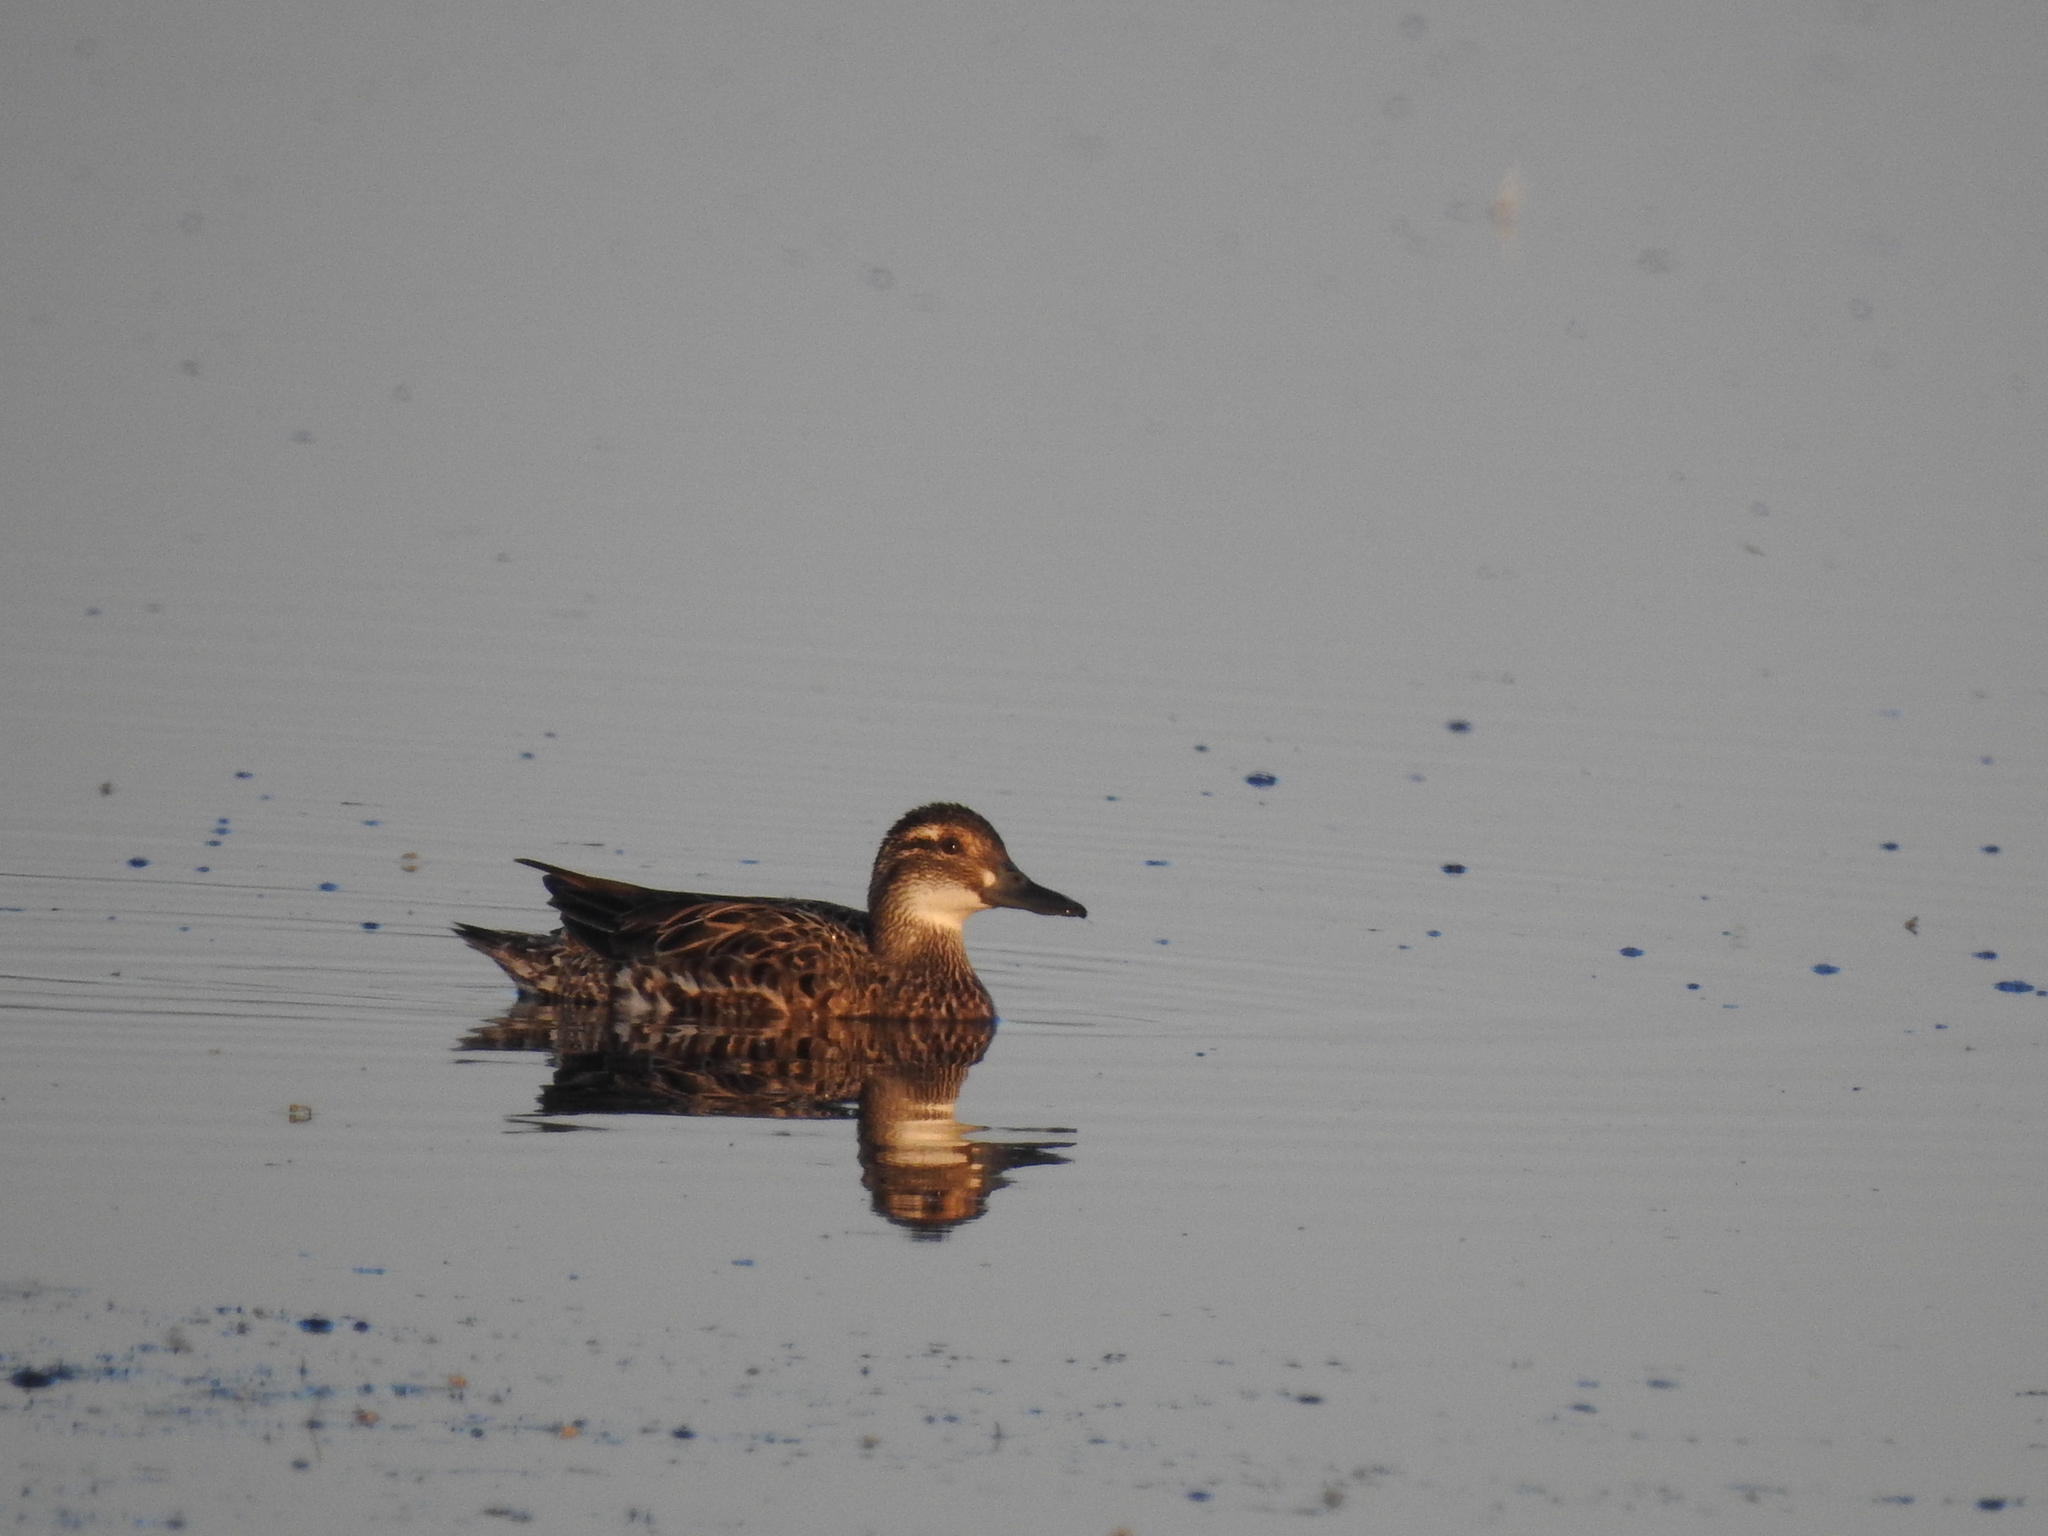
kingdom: Animalia
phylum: Chordata
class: Aves
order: Anseriformes
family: Anatidae
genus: Spatula
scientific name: Spatula querquedula
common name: Garganey
